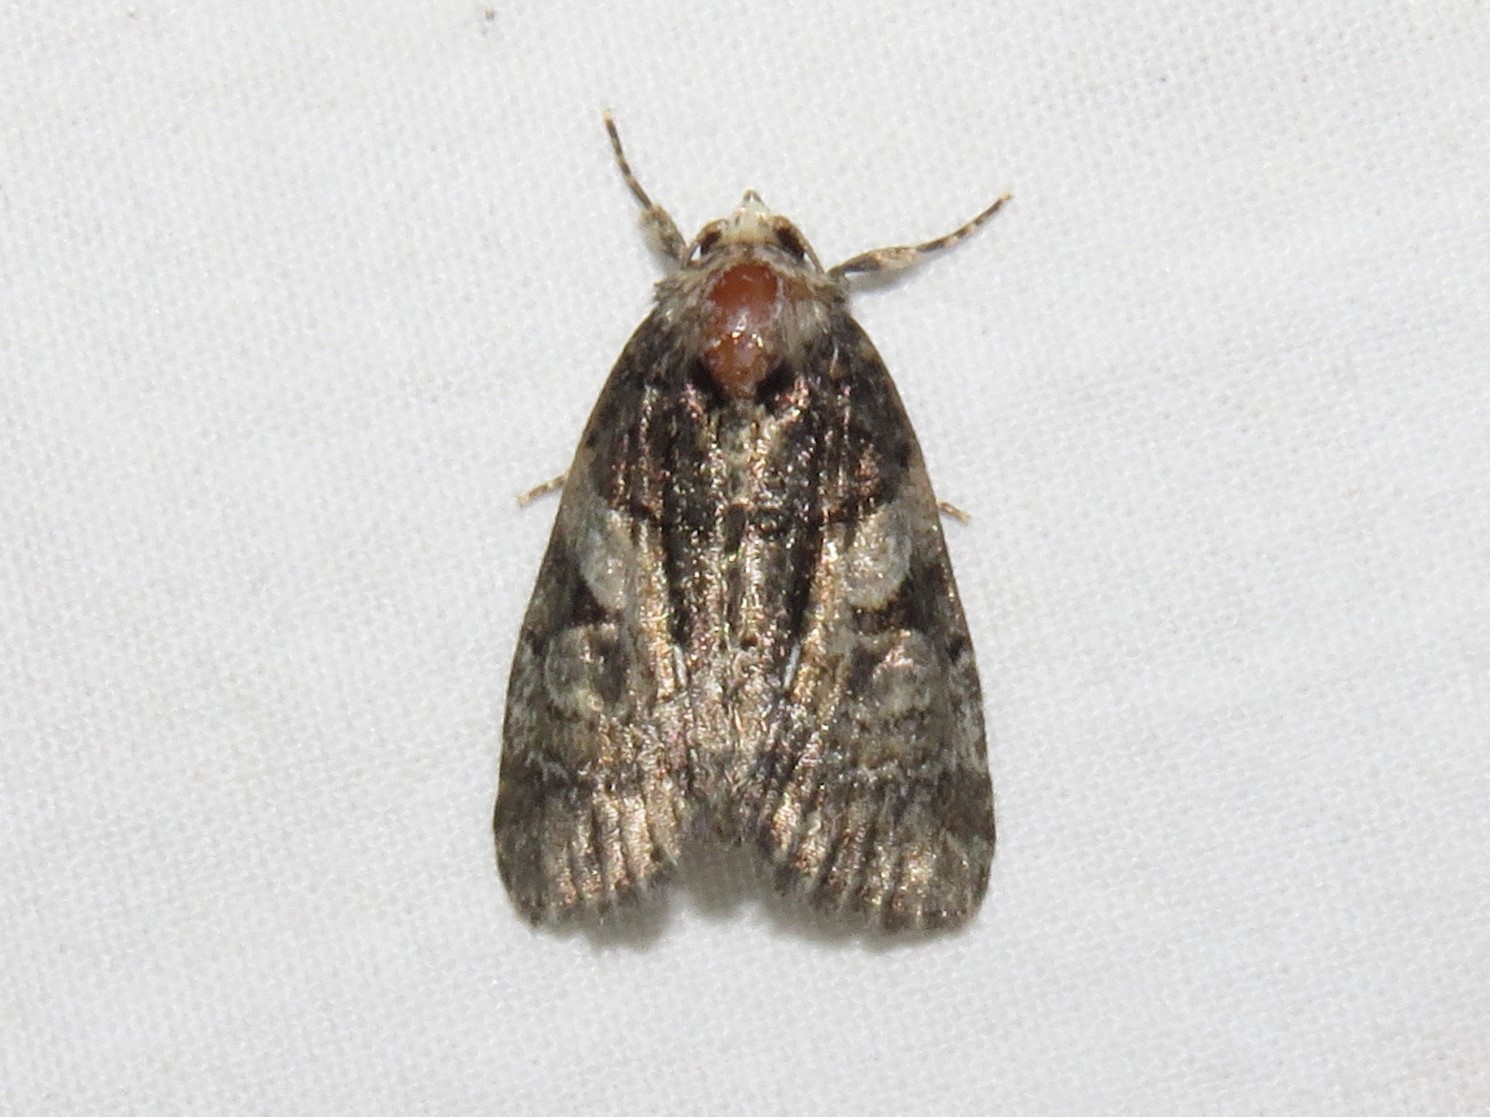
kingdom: Animalia
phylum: Arthropoda
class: Insecta
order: Lepidoptera
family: Noctuidae
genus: Chytonix
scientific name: Chytonix palliatricula
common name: Cloaked marvel
